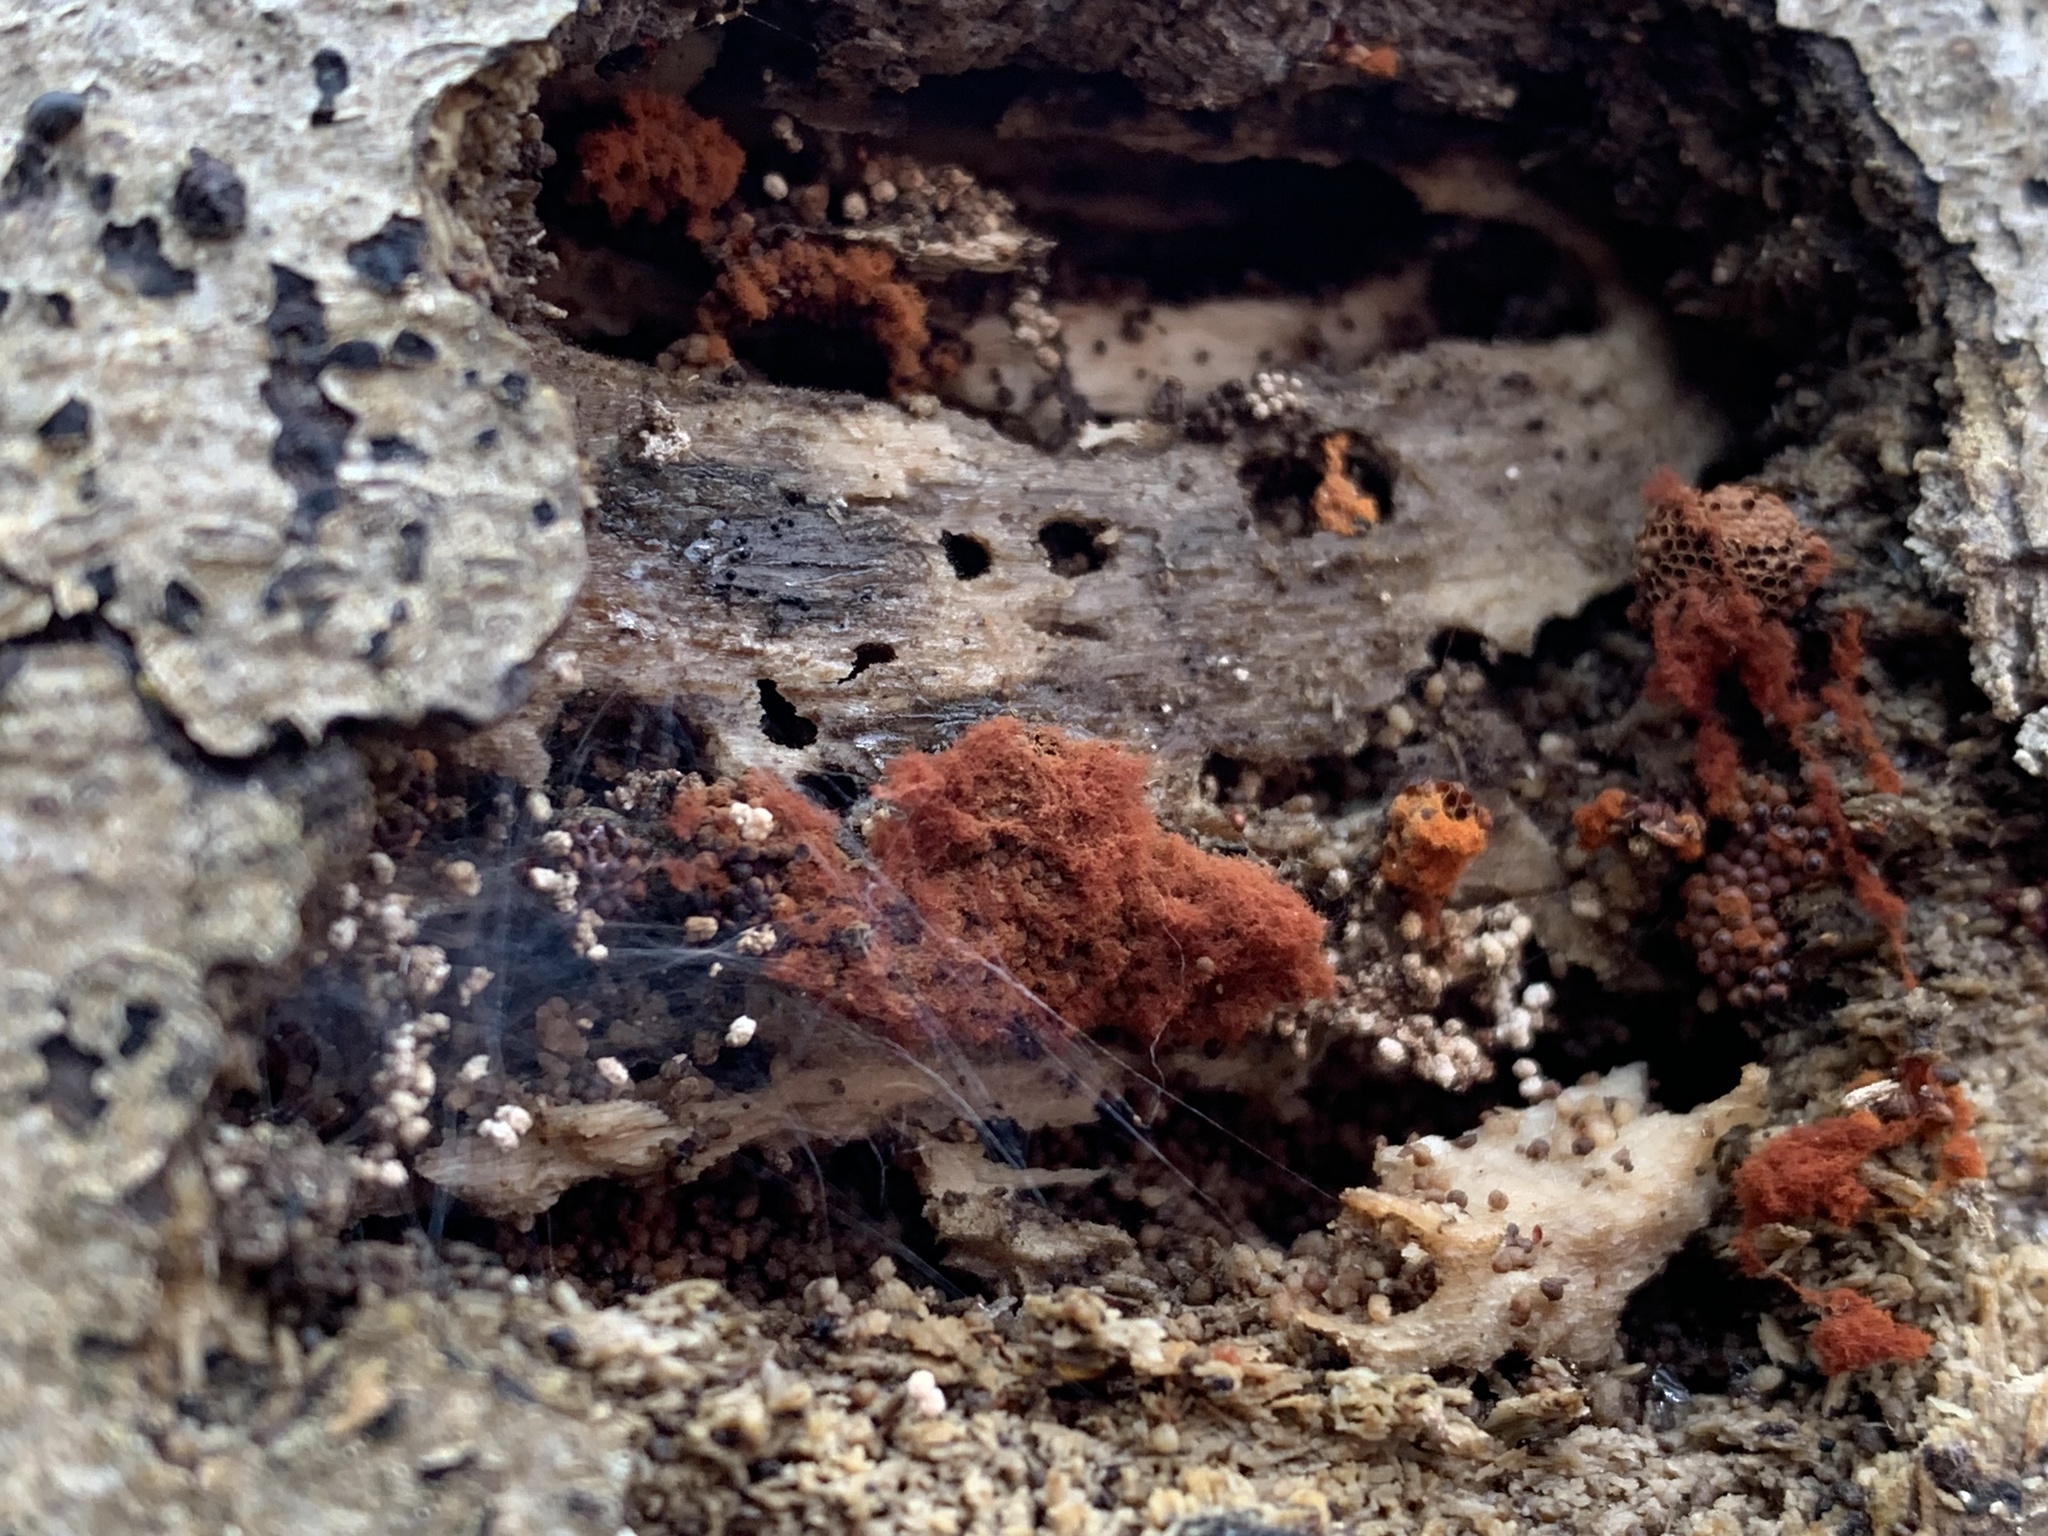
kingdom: Protozoa
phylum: Mycetozoa
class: Myxomycetes
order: Trichiales
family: Trichiaceae
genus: Metatrichia
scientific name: Metatrichia vesparia
